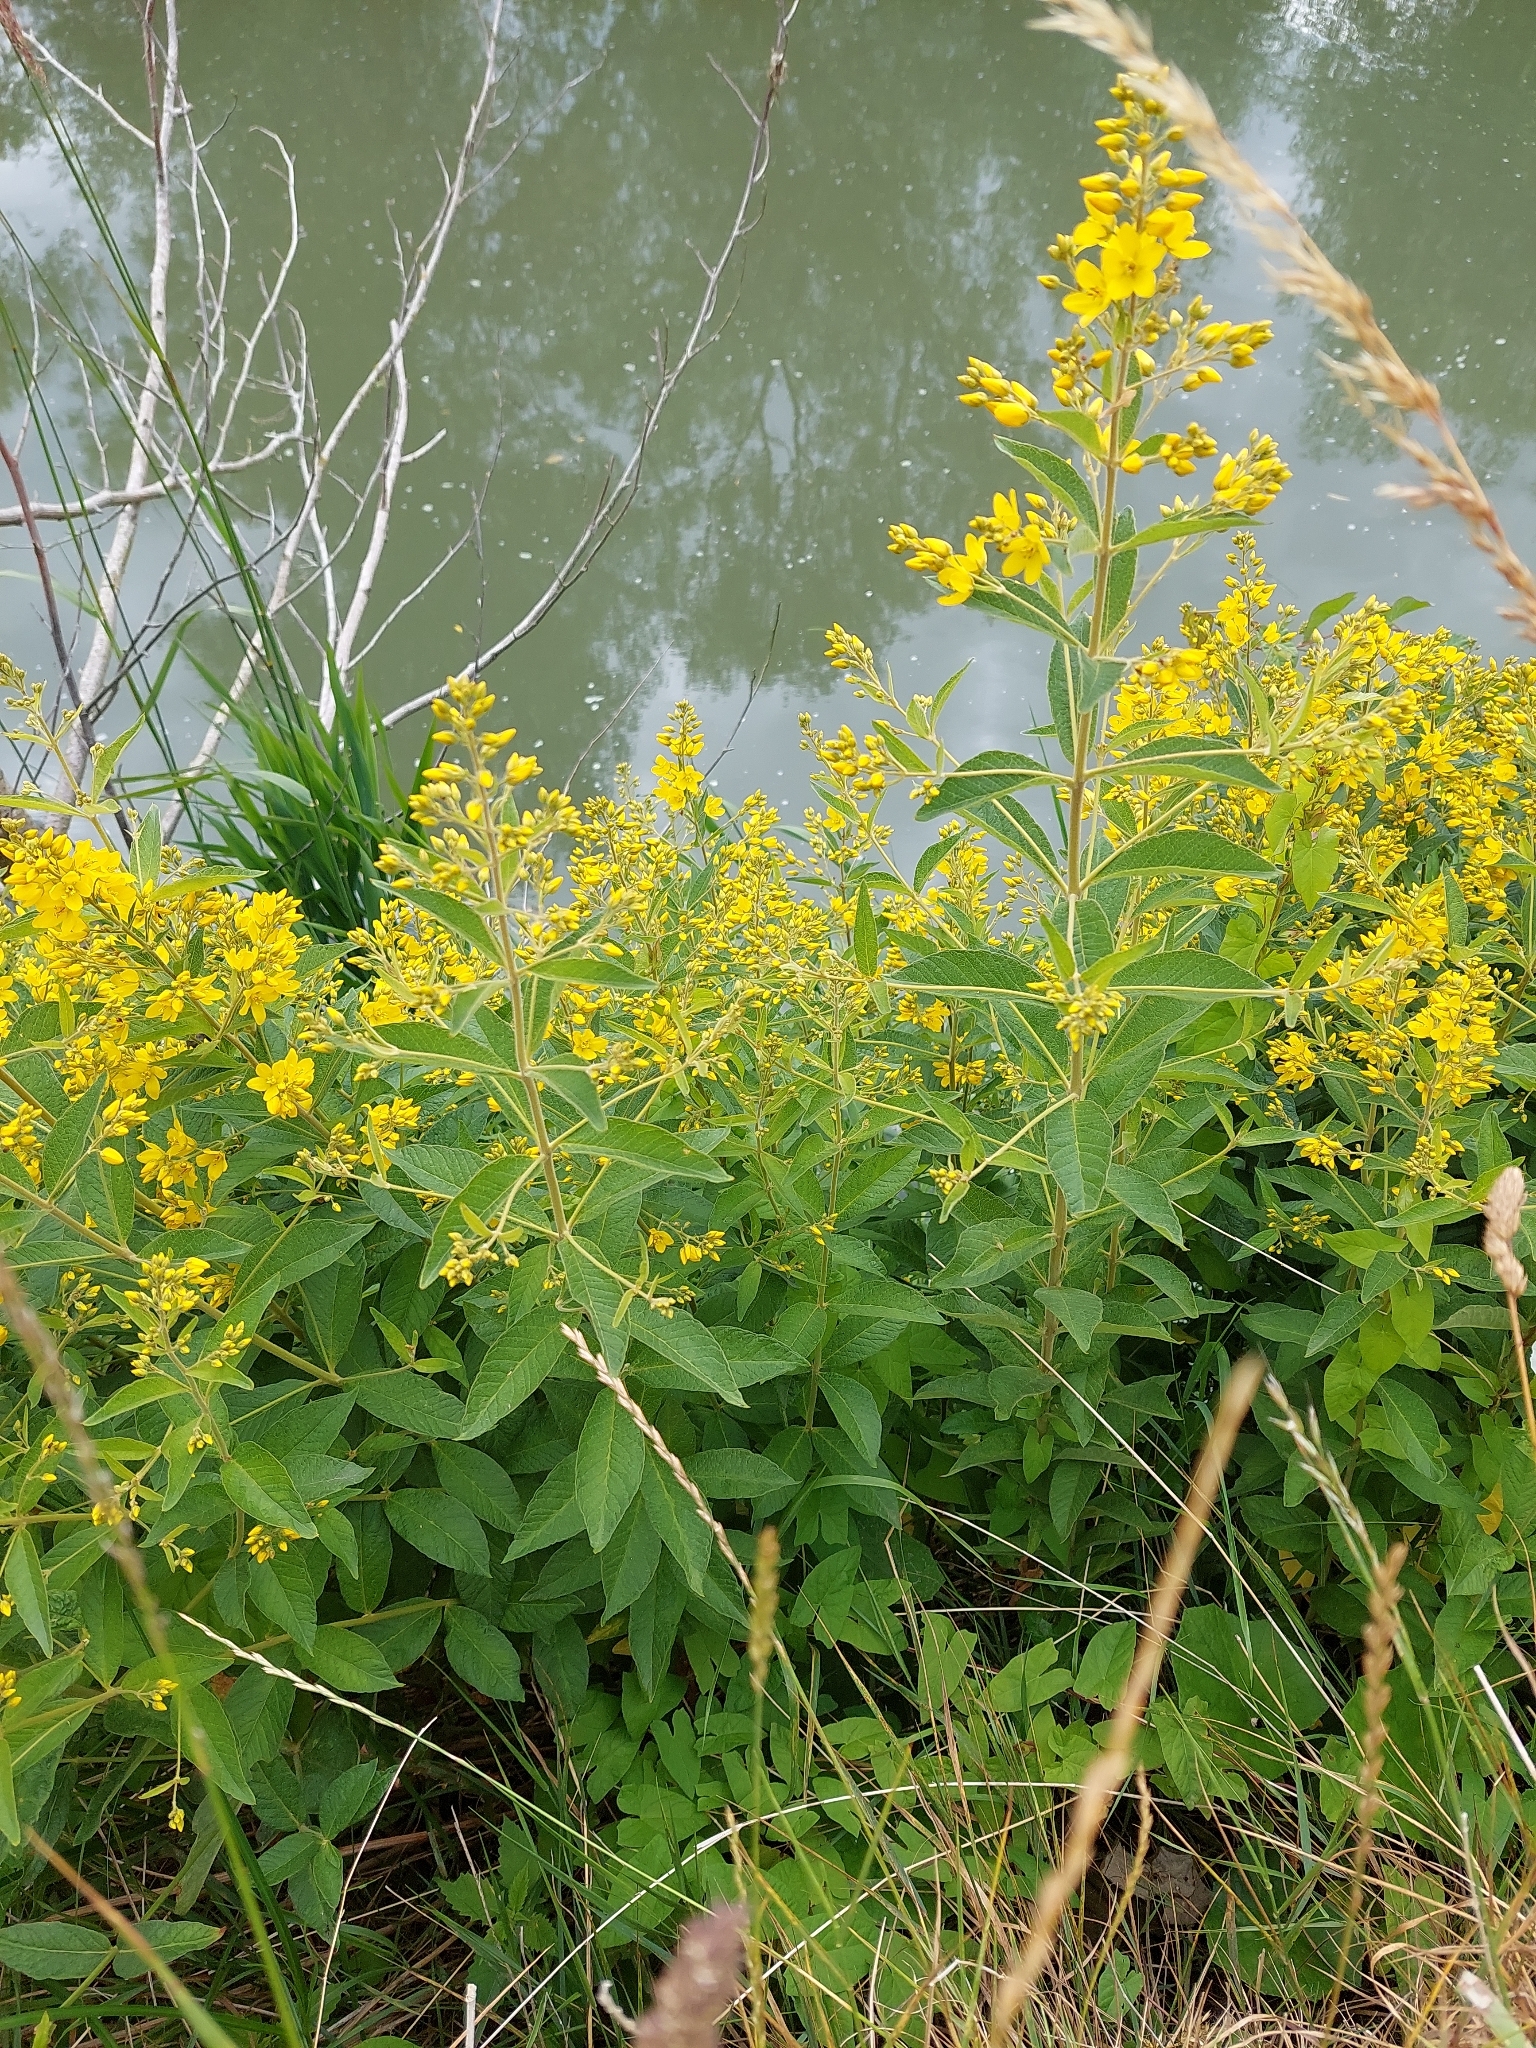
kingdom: Plantae
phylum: Tracheophyta
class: Magnoliopsida
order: Ericales
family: Primulaceae
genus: Lysimachia
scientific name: Lysimachia vulgaris
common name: Yellow loosestrife
